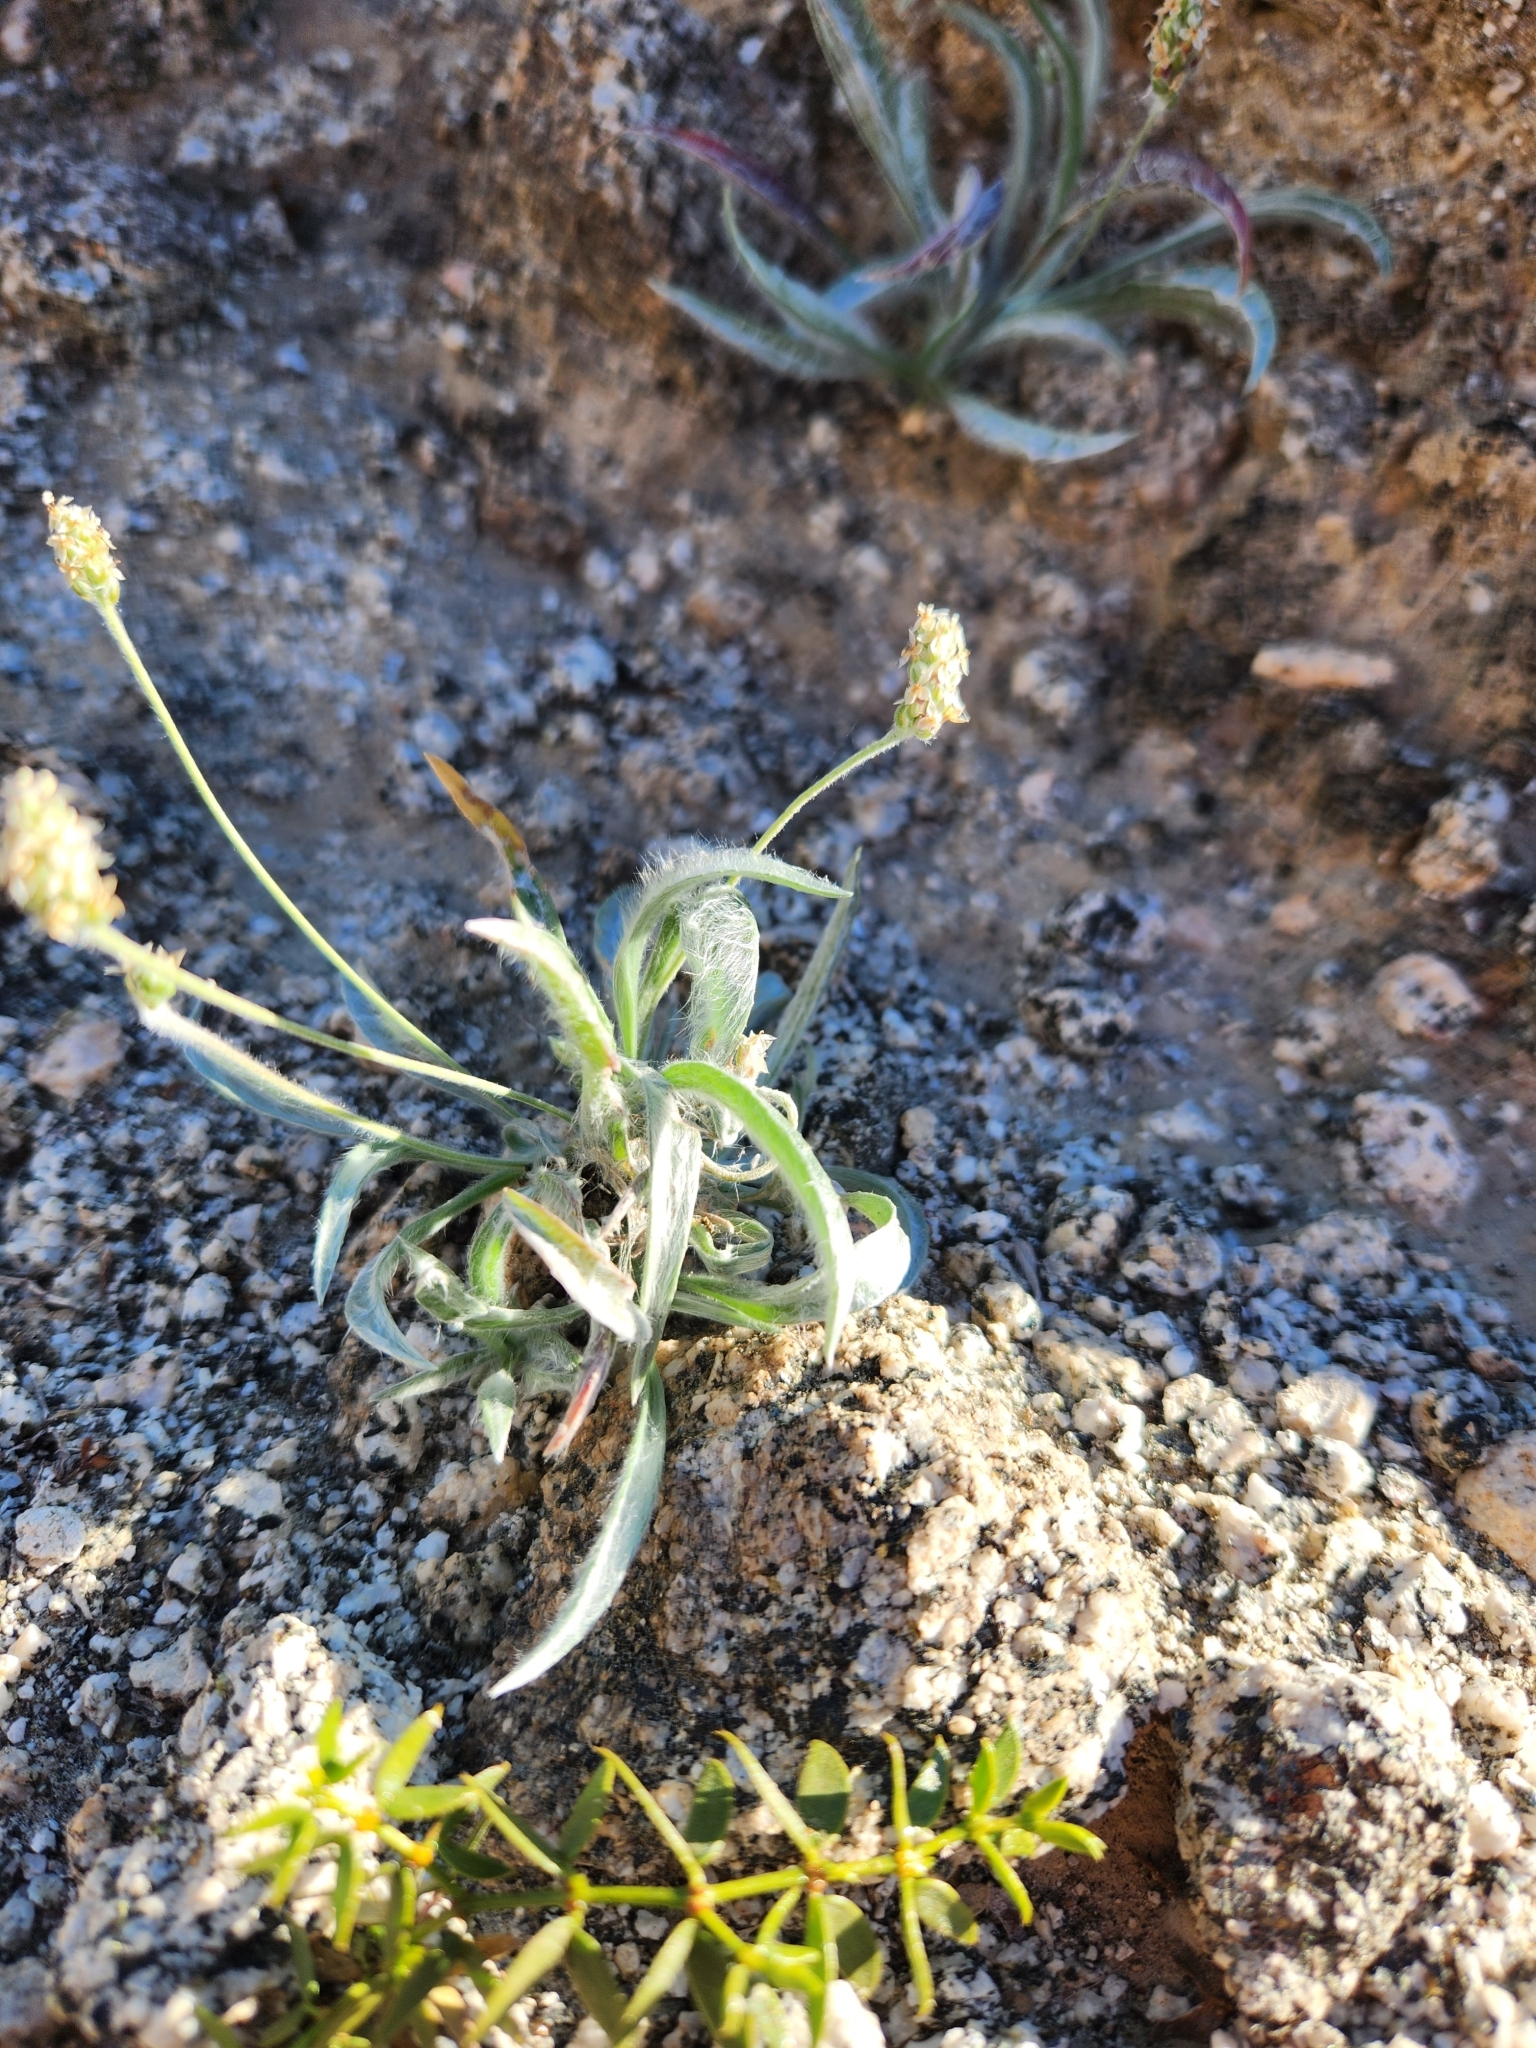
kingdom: Plantae
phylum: Tracheophyta
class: Magnoliopsida
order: Lamiales
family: Plantaginaceae
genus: Plantago
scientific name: Plantago ovata
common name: Blond plantain
